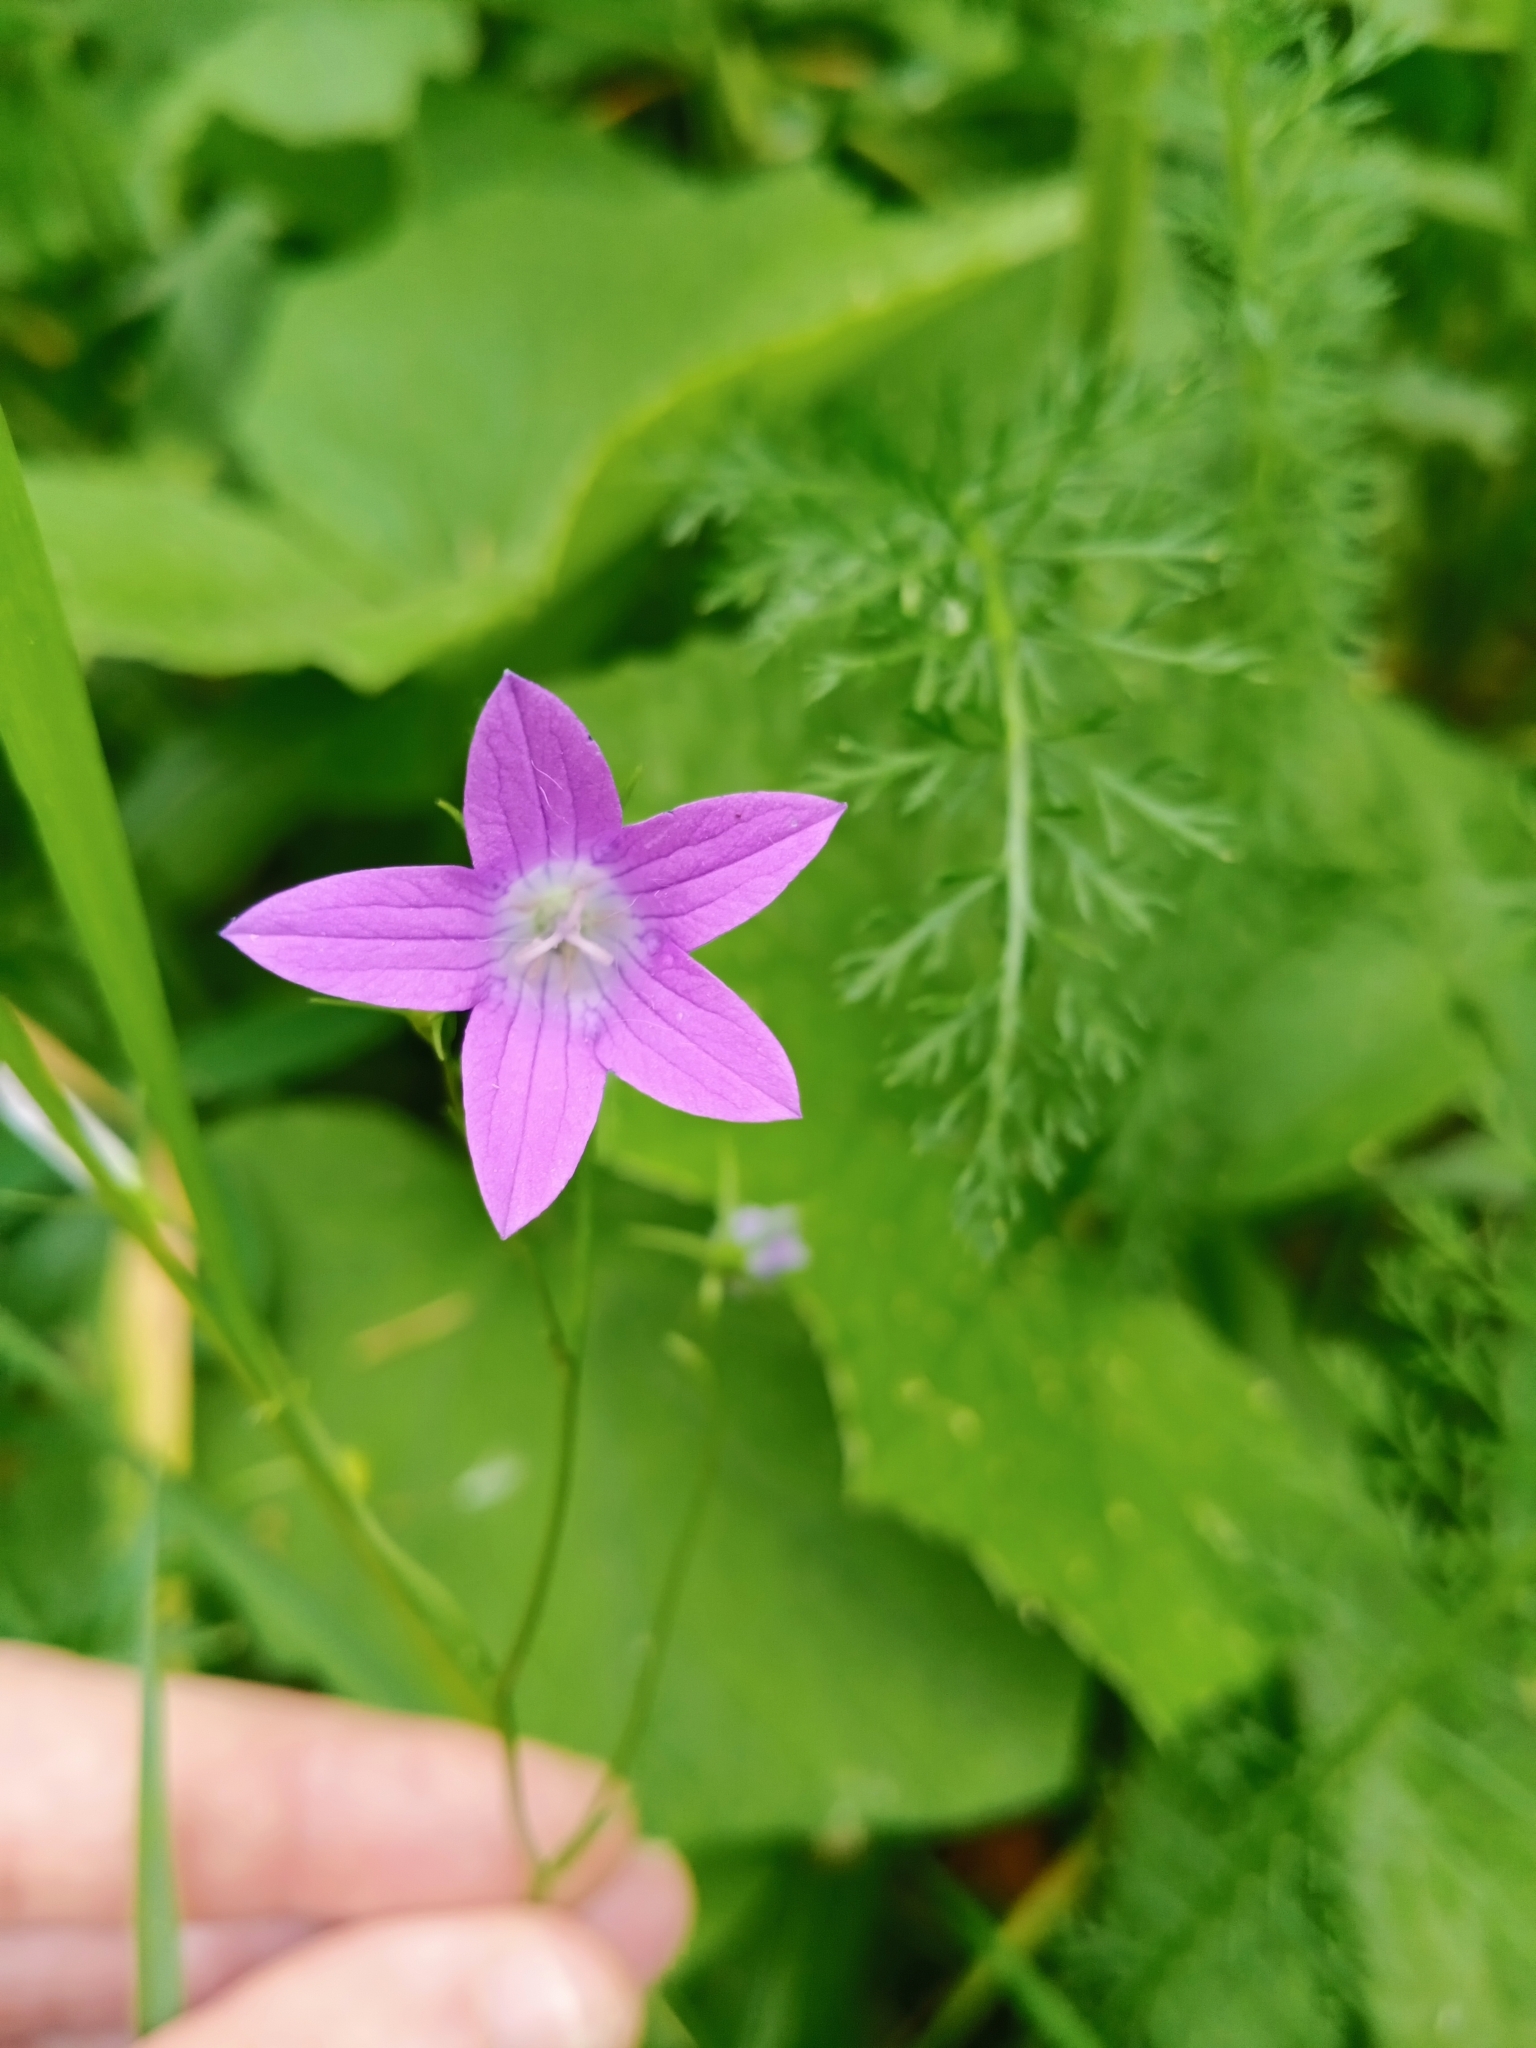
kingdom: Plantae
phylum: Tracheophyta
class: Magnoliopsida
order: Asterales
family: Campanulaceae
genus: Campanula
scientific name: Campanula patula
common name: Spreading bellflower
